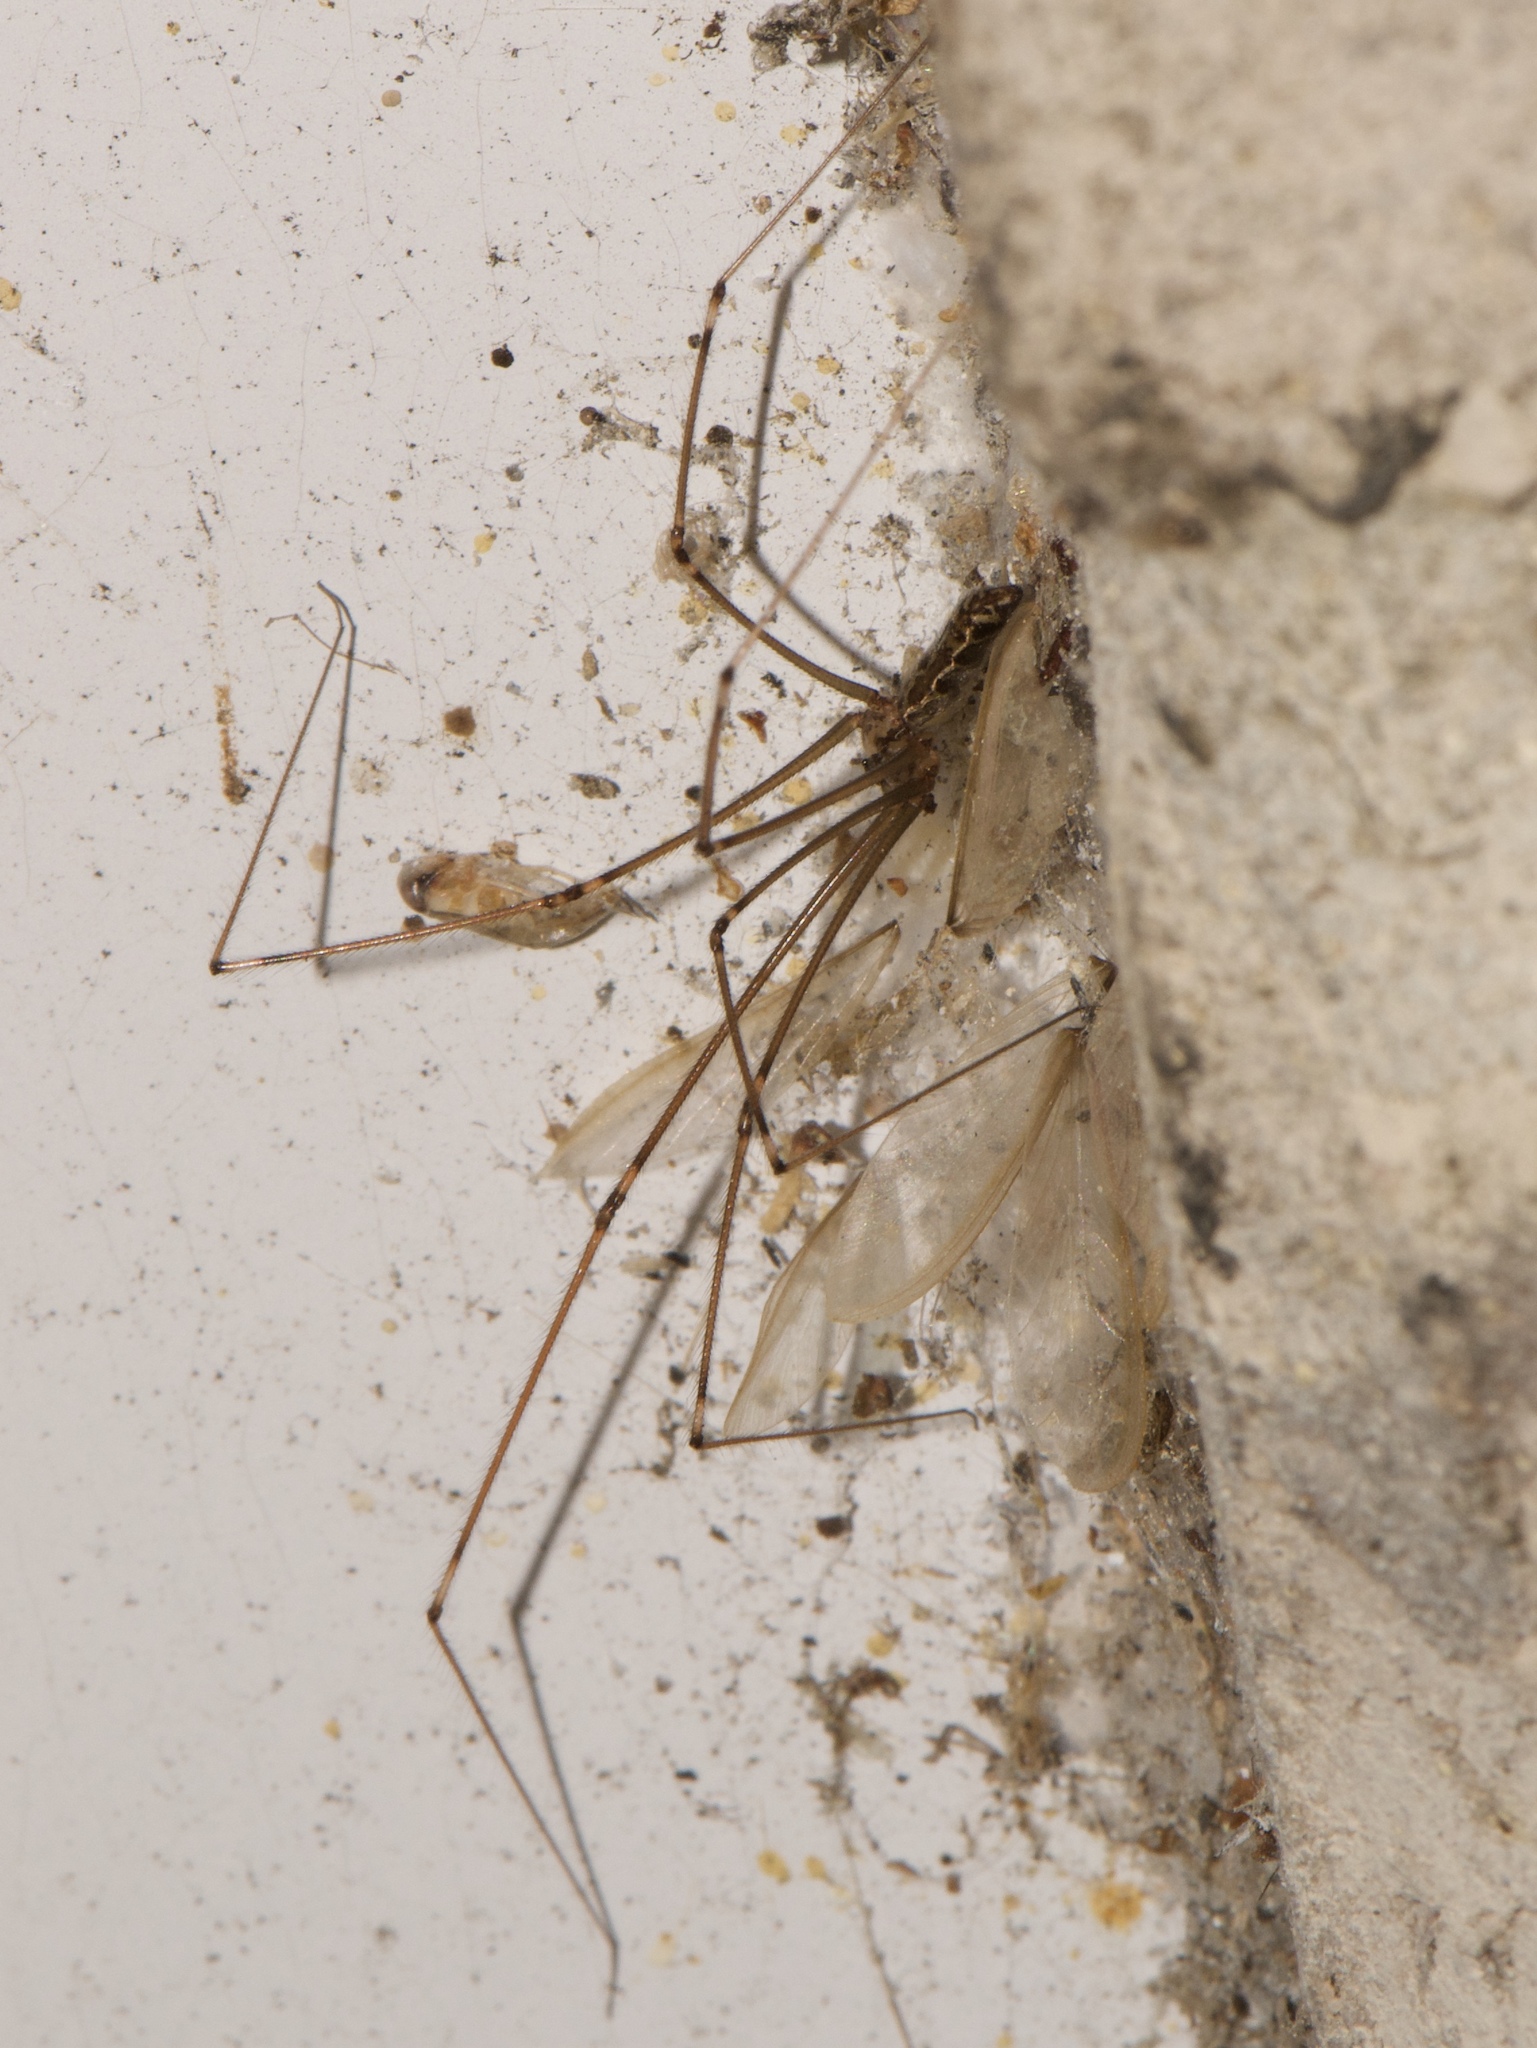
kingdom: Animalia
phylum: Arthropoda
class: Arachnida
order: Araneae
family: Pholcidae
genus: Pholcus
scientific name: Pholcus phalangioides
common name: Longbodied cellar spider
